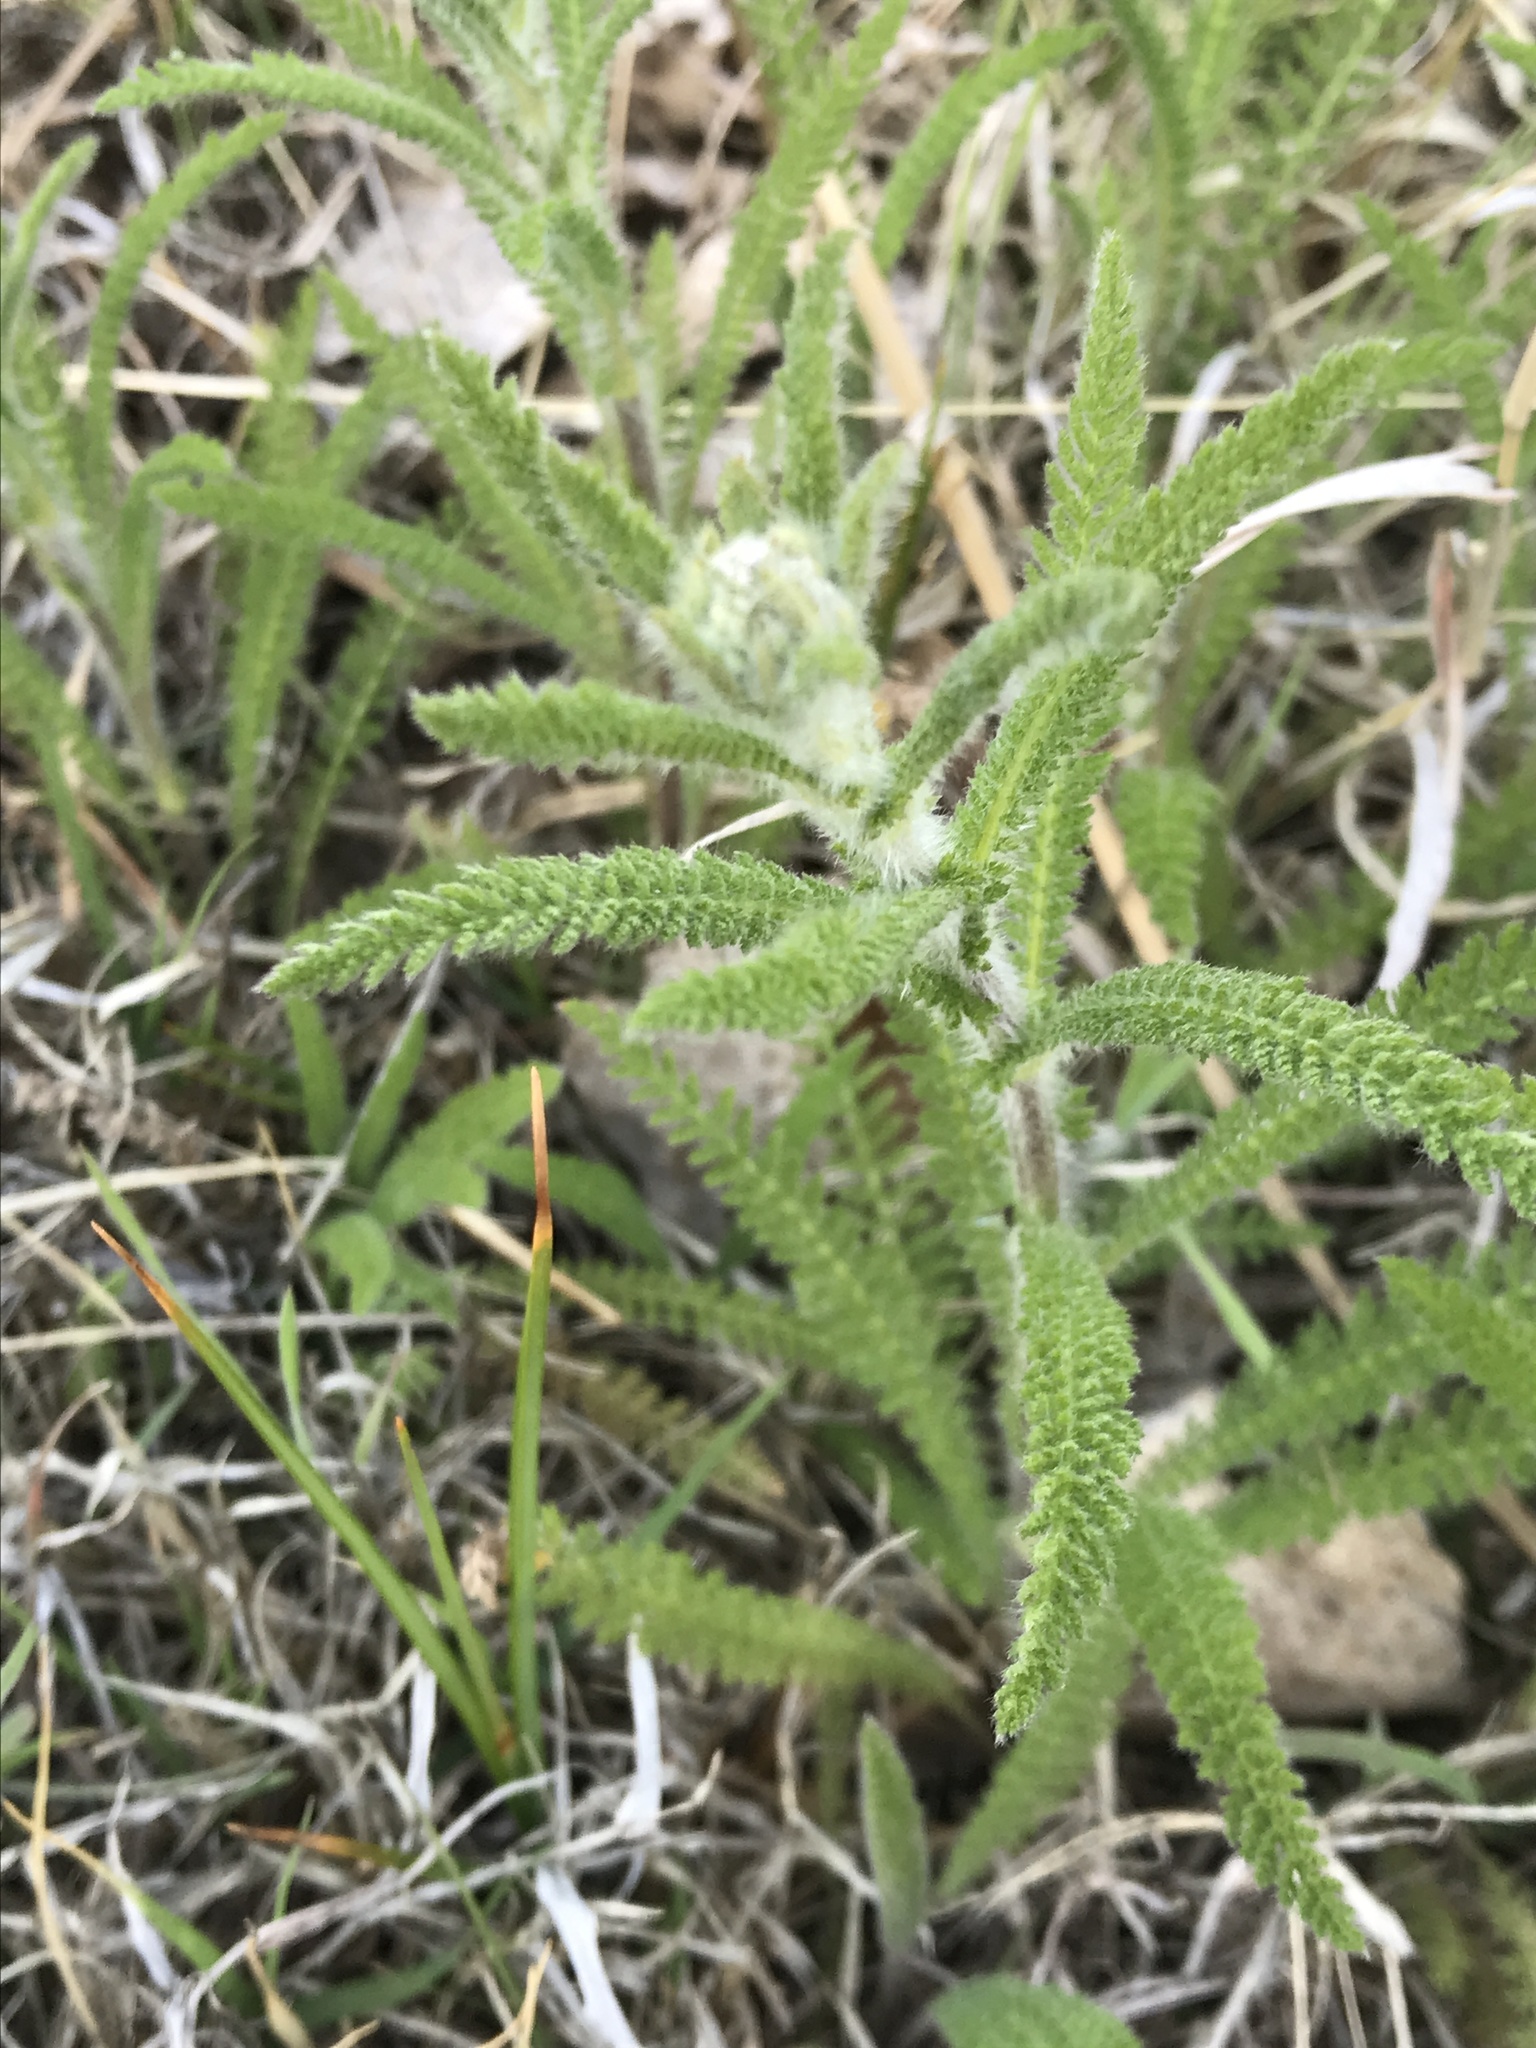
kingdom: Plantae
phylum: Tracheophyta
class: Magnoliopsida
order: Asterales
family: Asteraceae
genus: Achillea
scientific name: Achillea millefolium
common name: Yarrow
